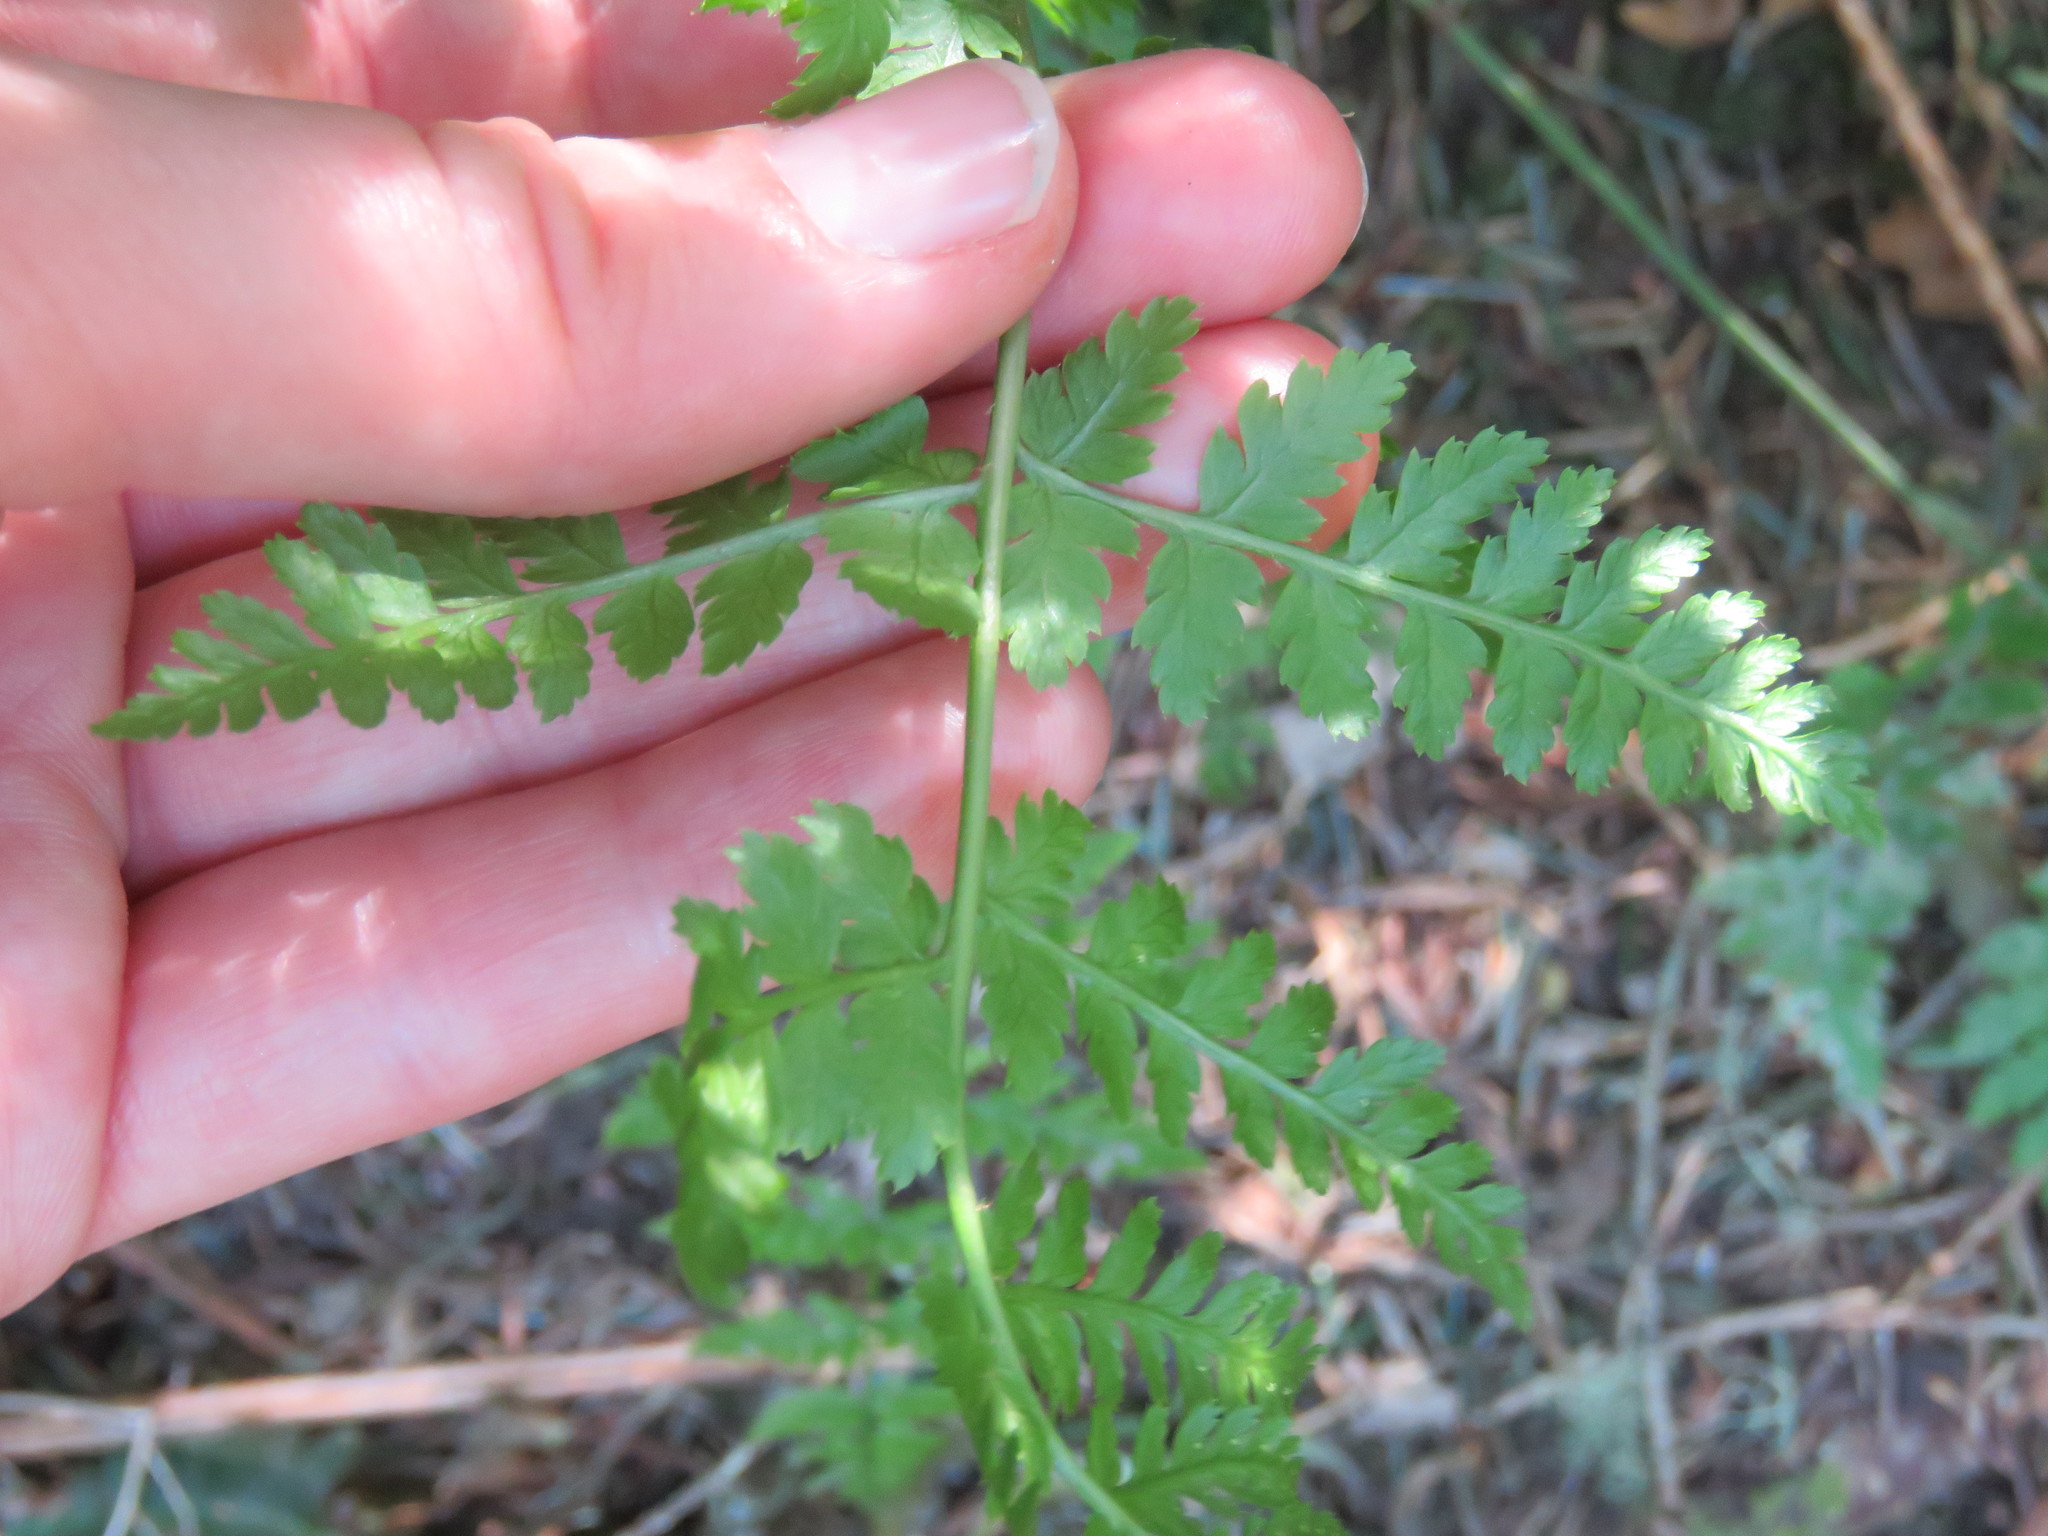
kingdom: Plantae
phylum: Tracheophyta
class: Polypodiopsida
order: Polypodiales
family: Dryopteridaceae
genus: Dryopteris
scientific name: Dryopteris expansa
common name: Northern buckler fern
